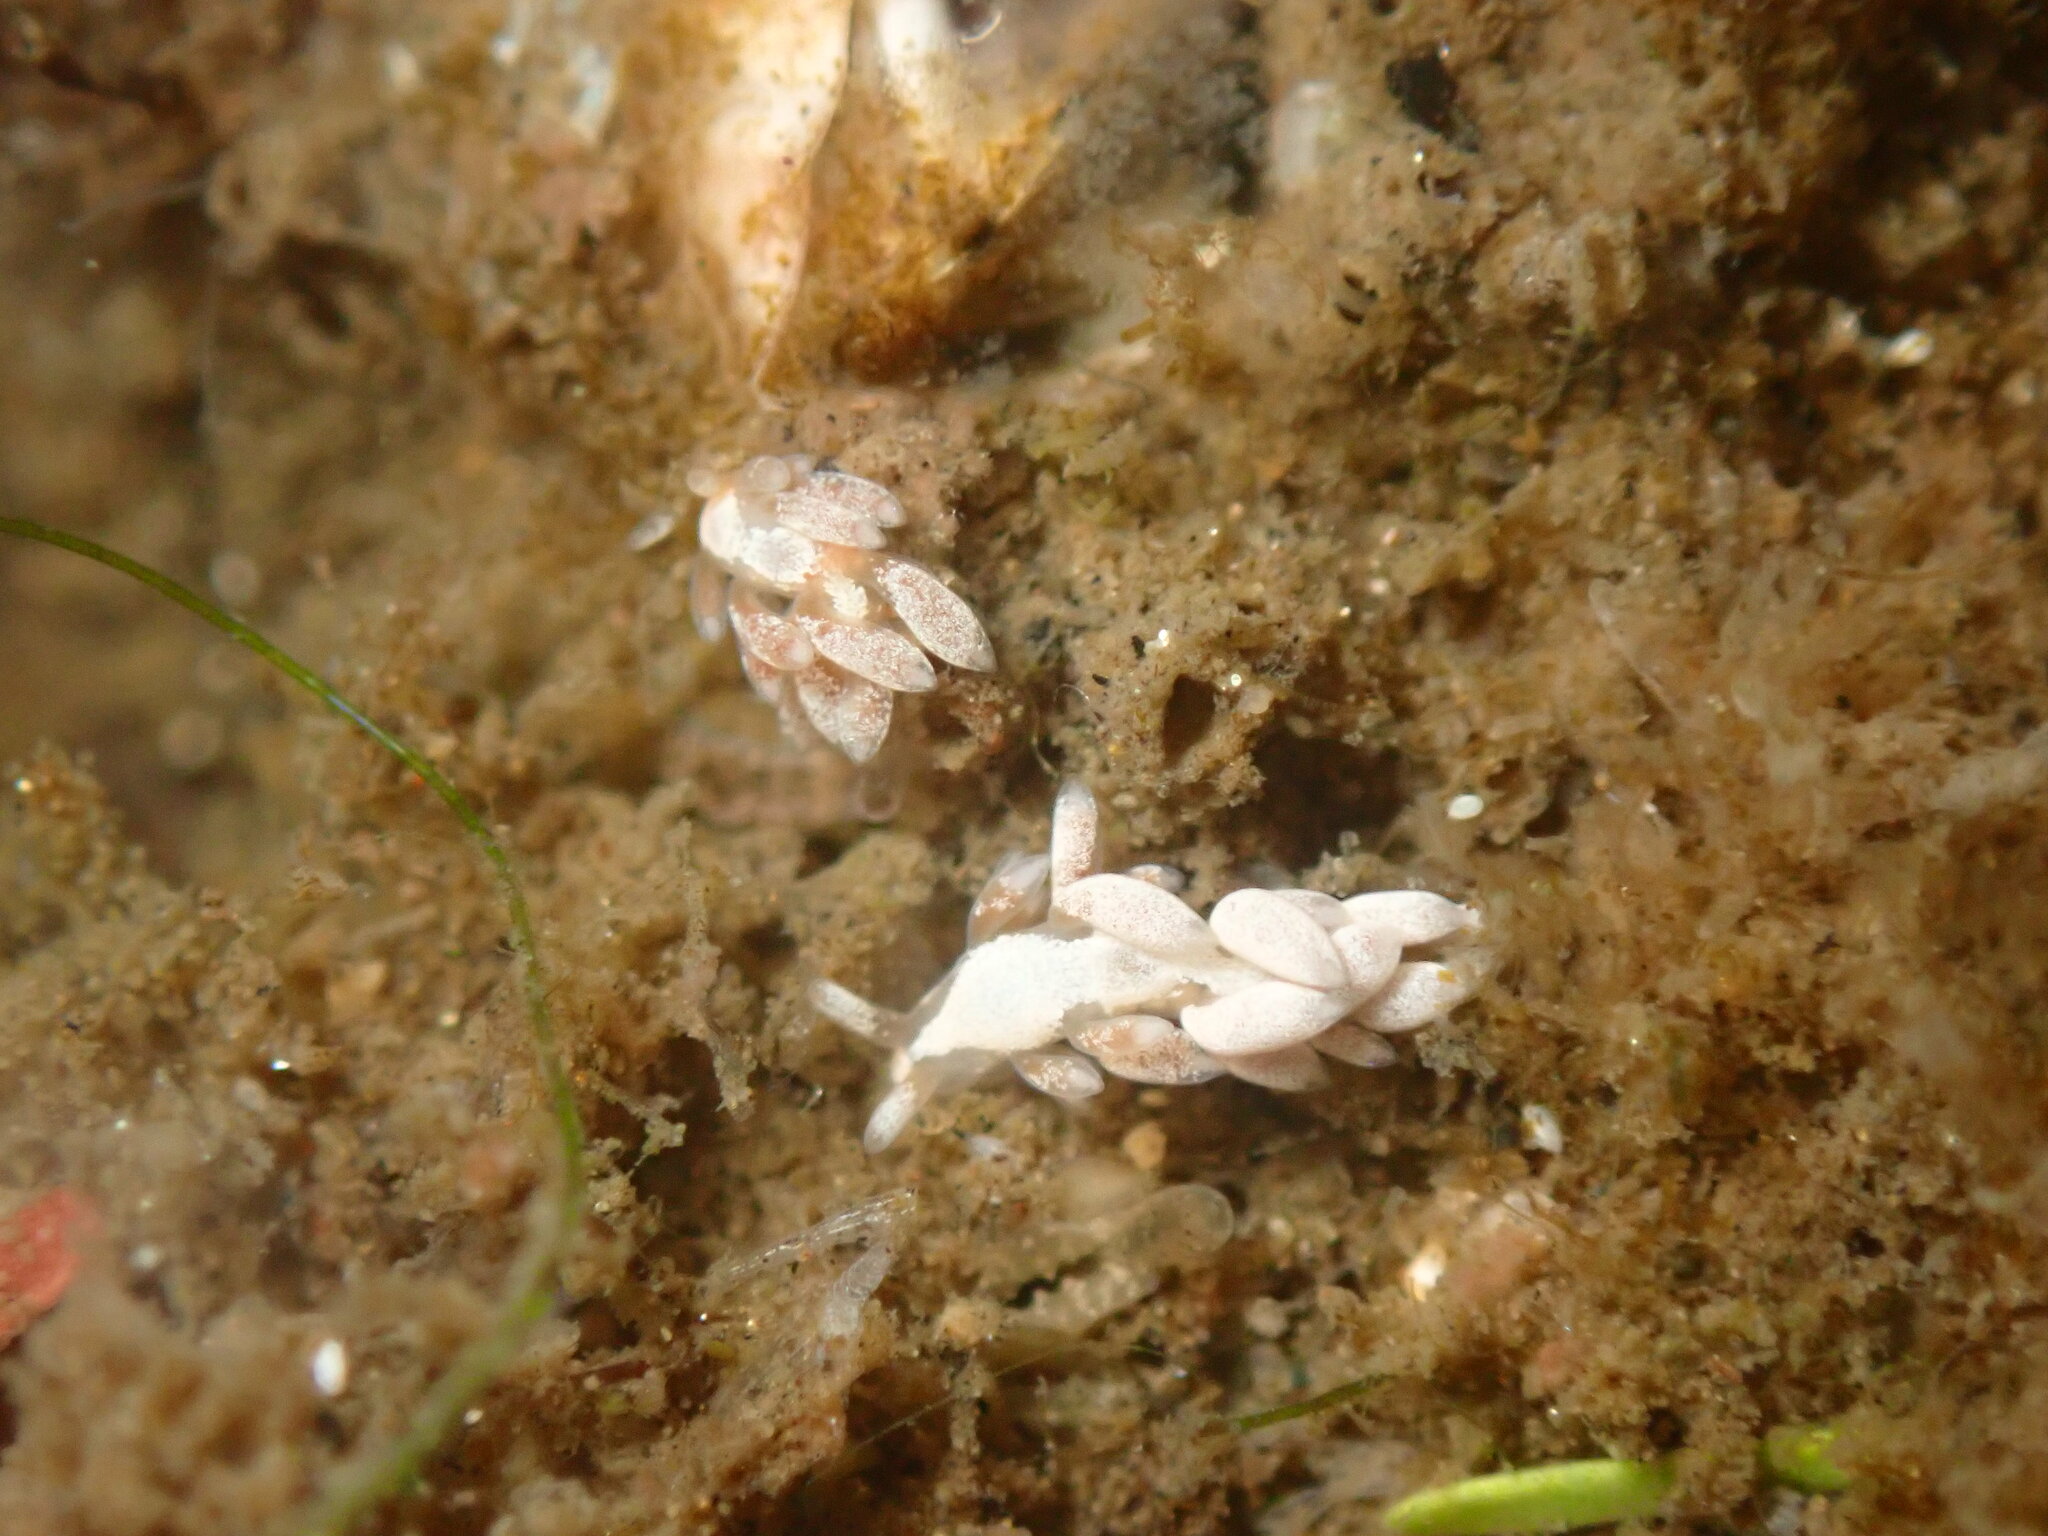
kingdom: Animalia
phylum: Mollusca
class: Gastropoda
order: Nudibranchia
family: Trinchesiidae
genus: Trinchesia
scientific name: Trinchesia albocrusta
